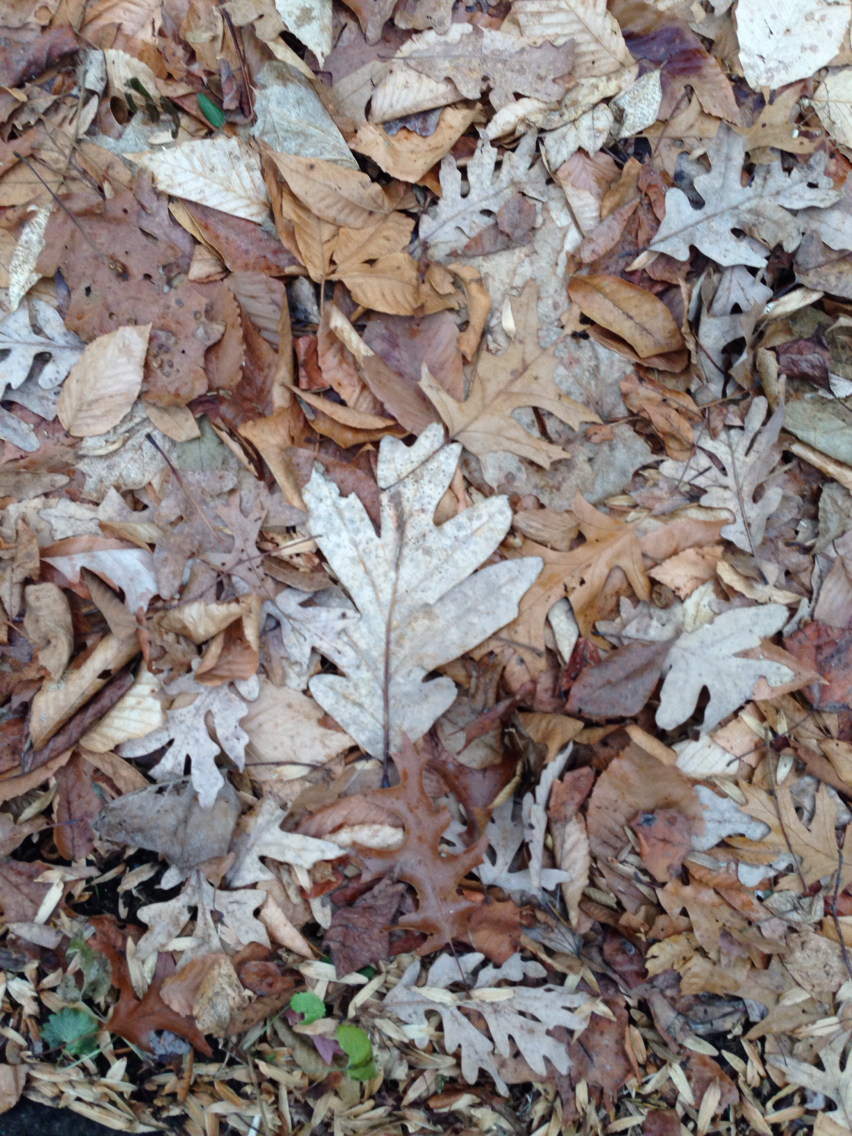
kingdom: Plantae
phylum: Tracheophyta
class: Magnoliopsida
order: Fagales
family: Fagaceae
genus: Quercus
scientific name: Quercus alba
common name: White oak
